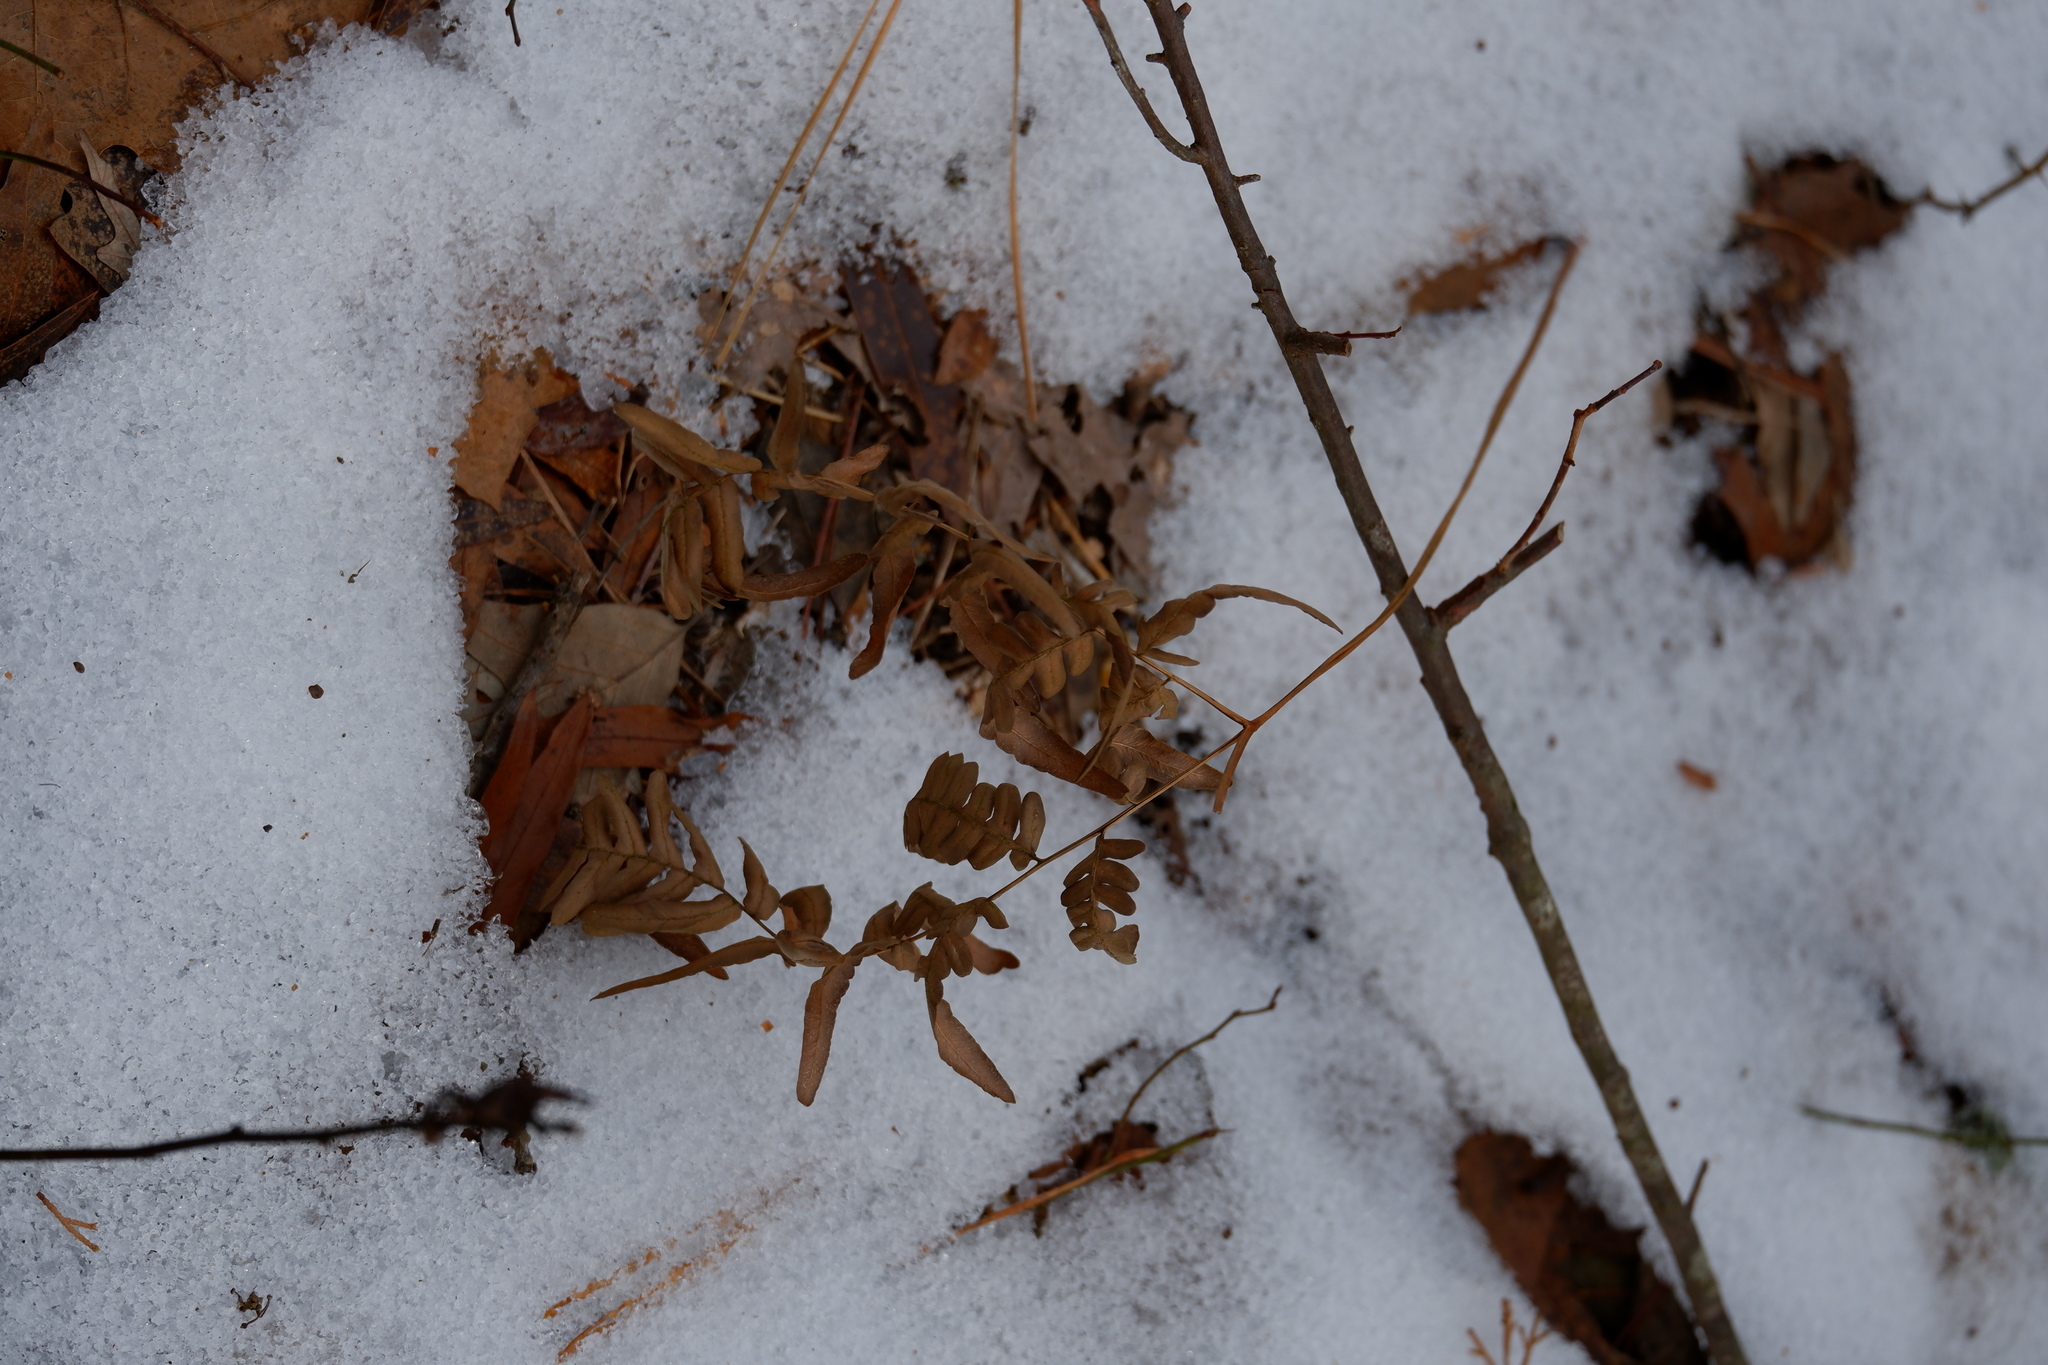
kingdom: Plantae
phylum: Tracheophyta
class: Polypodiopsida
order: Polypodiales
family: Dennstaedtiaceae
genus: Pteridium
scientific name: Pteridium aquilinum
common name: Bracken
